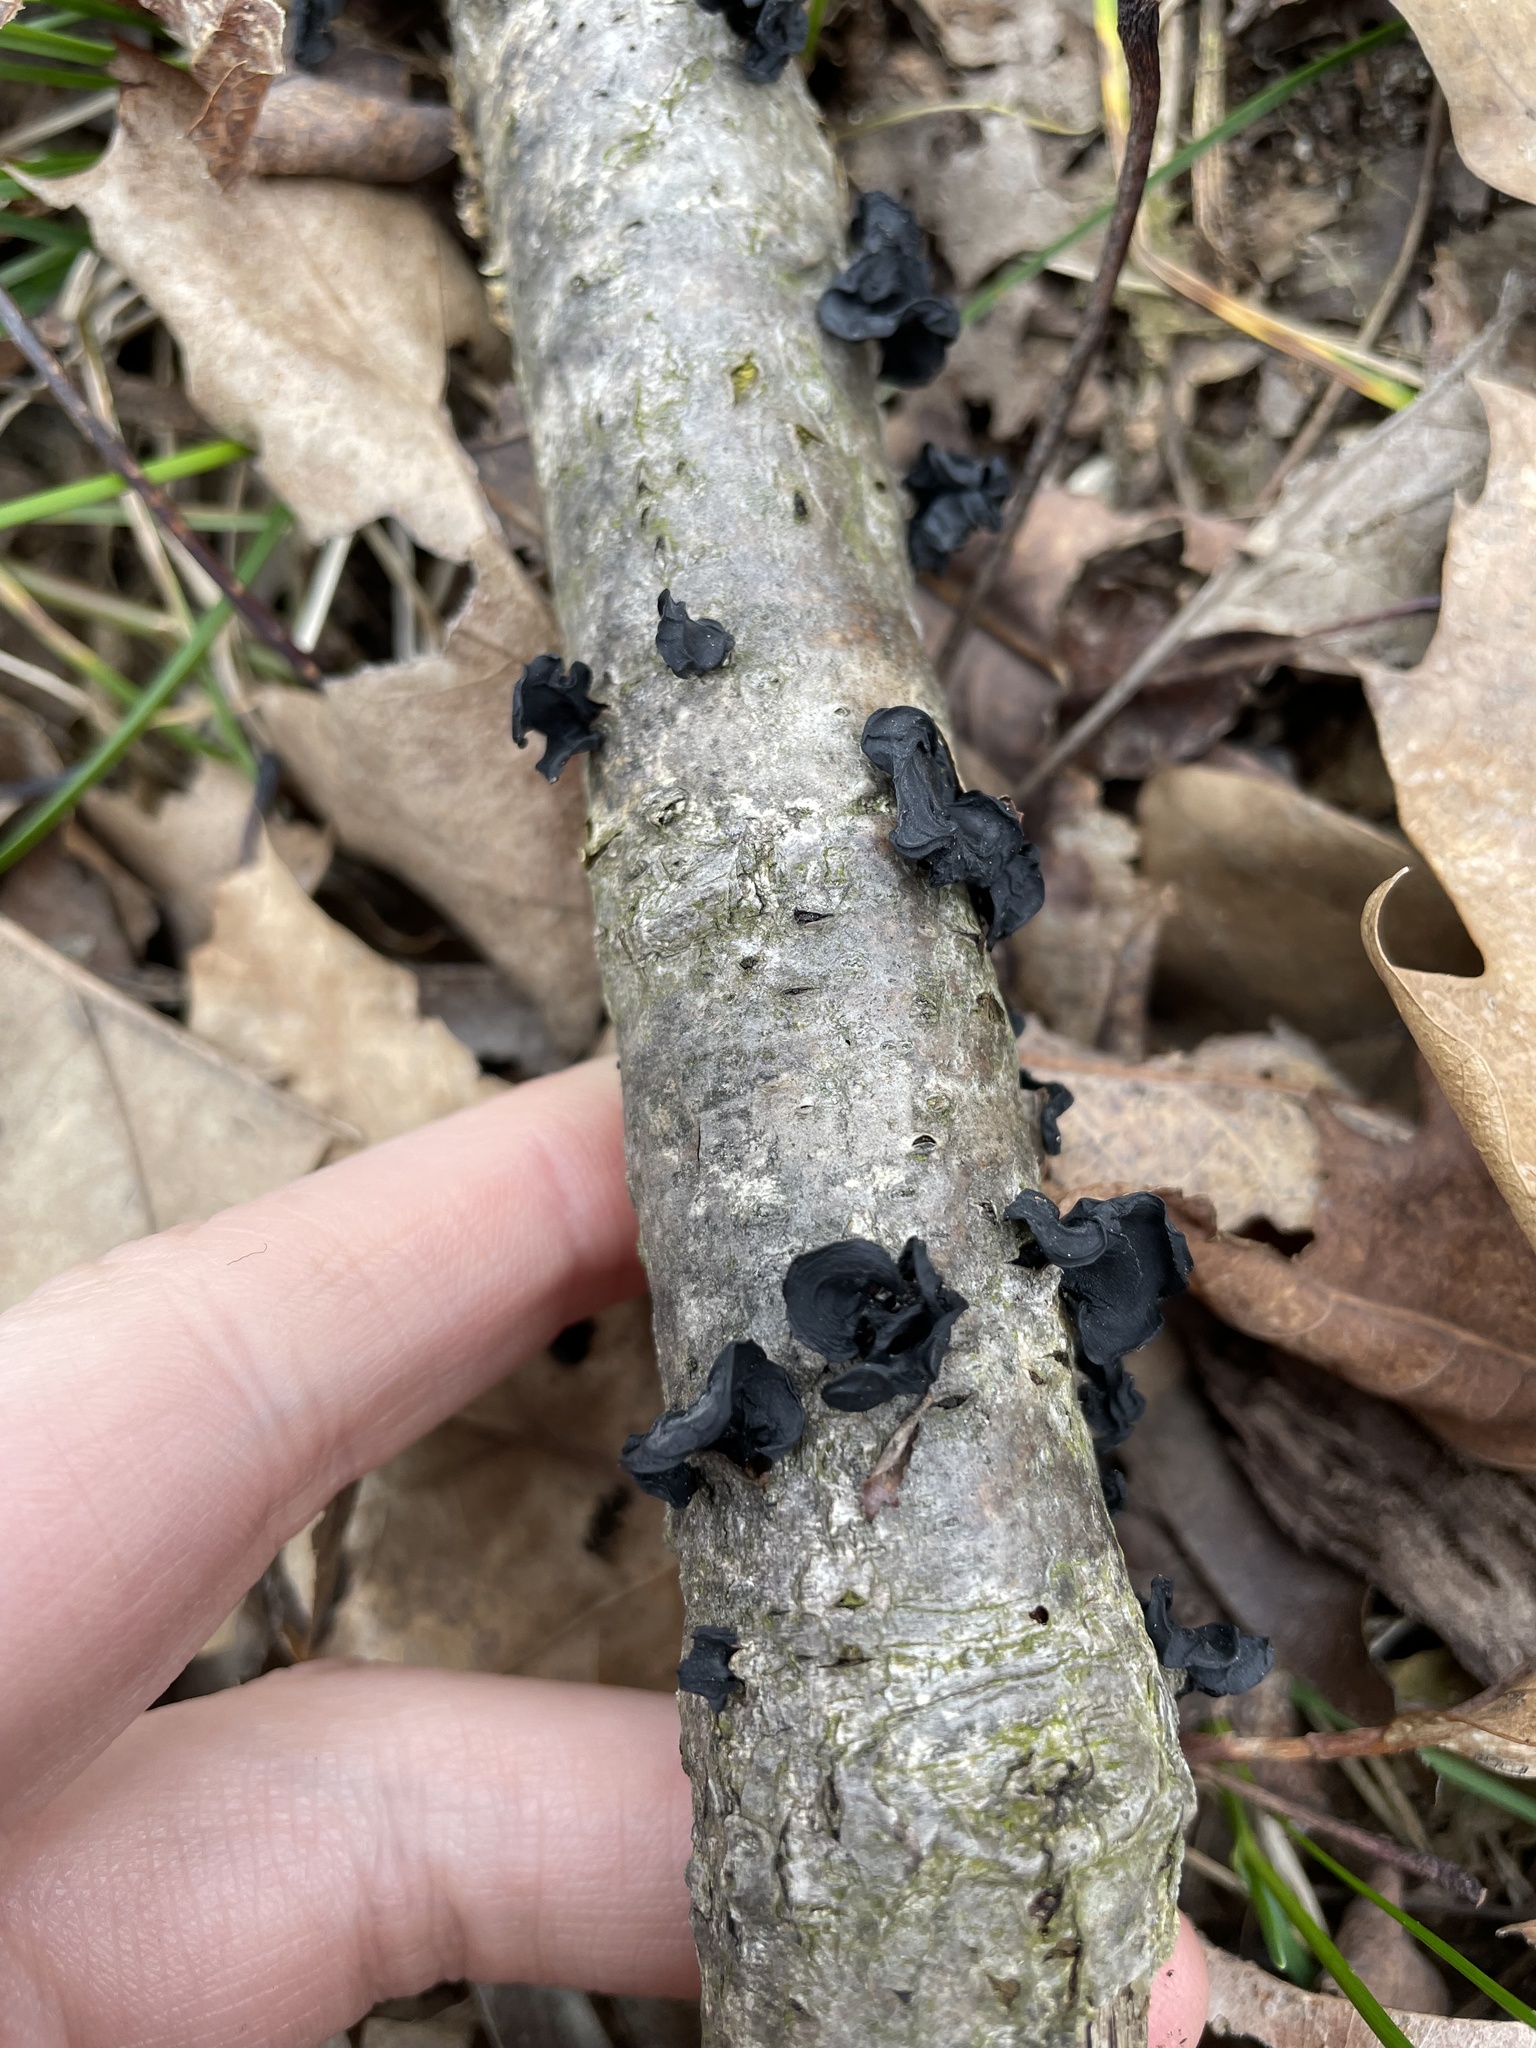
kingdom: Fungi
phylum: Basidiomycota
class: Agaricomycetes
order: Auriculariales
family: Auriculariaceae
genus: Exidia
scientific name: Exidia glandulosa
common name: Witches' butter
